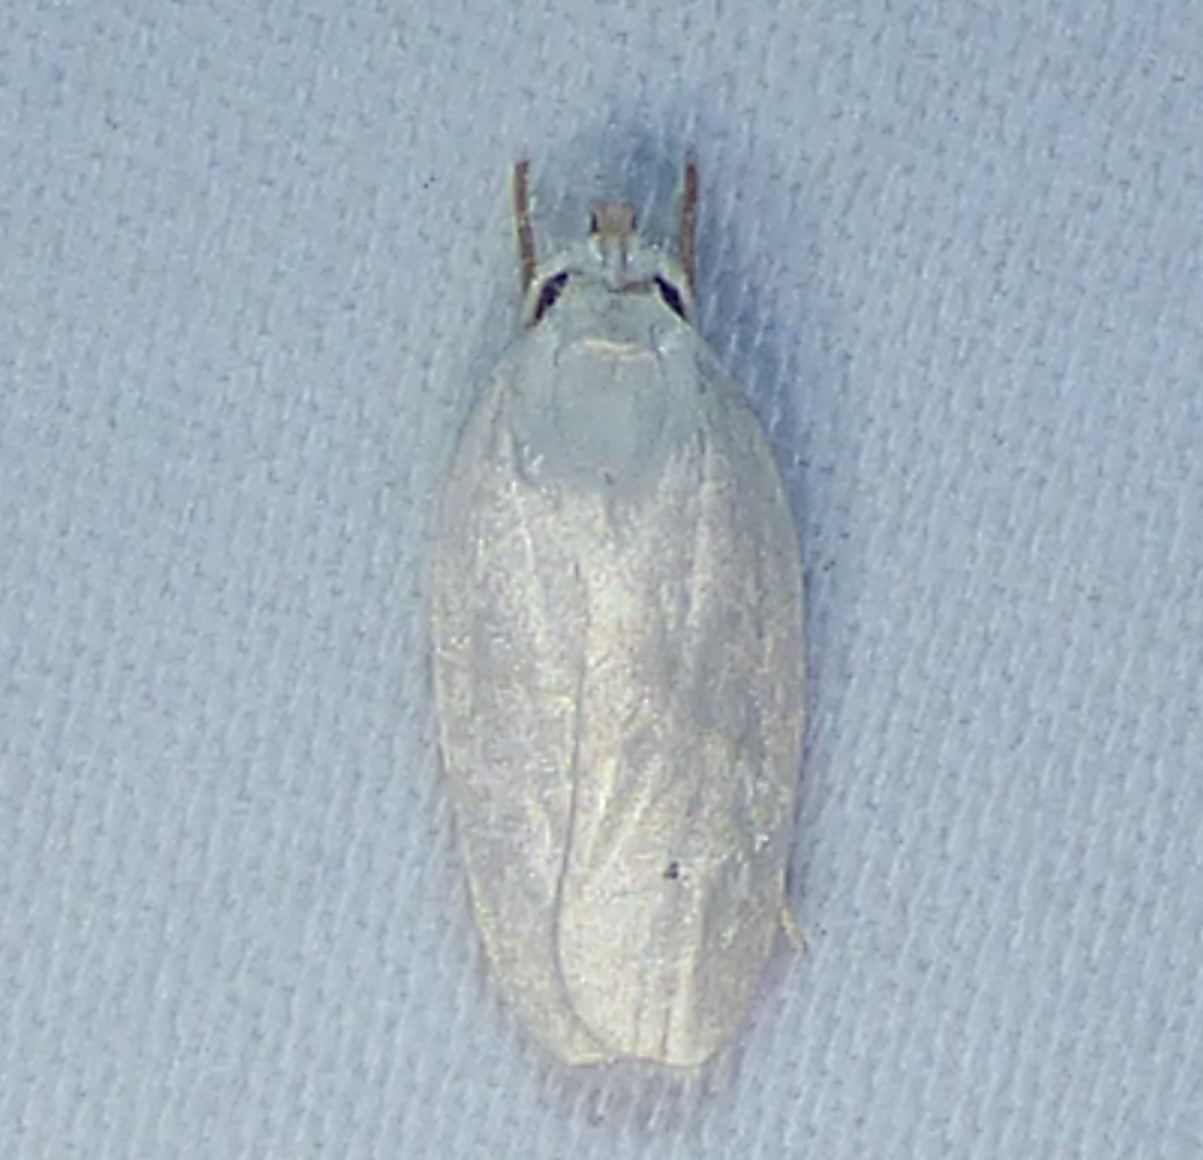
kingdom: Animalia
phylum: Arthropoda
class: Insecta
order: Lepidoptera
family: Depressariidae
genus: Antaeotricha
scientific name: Antaeotricha albulella
